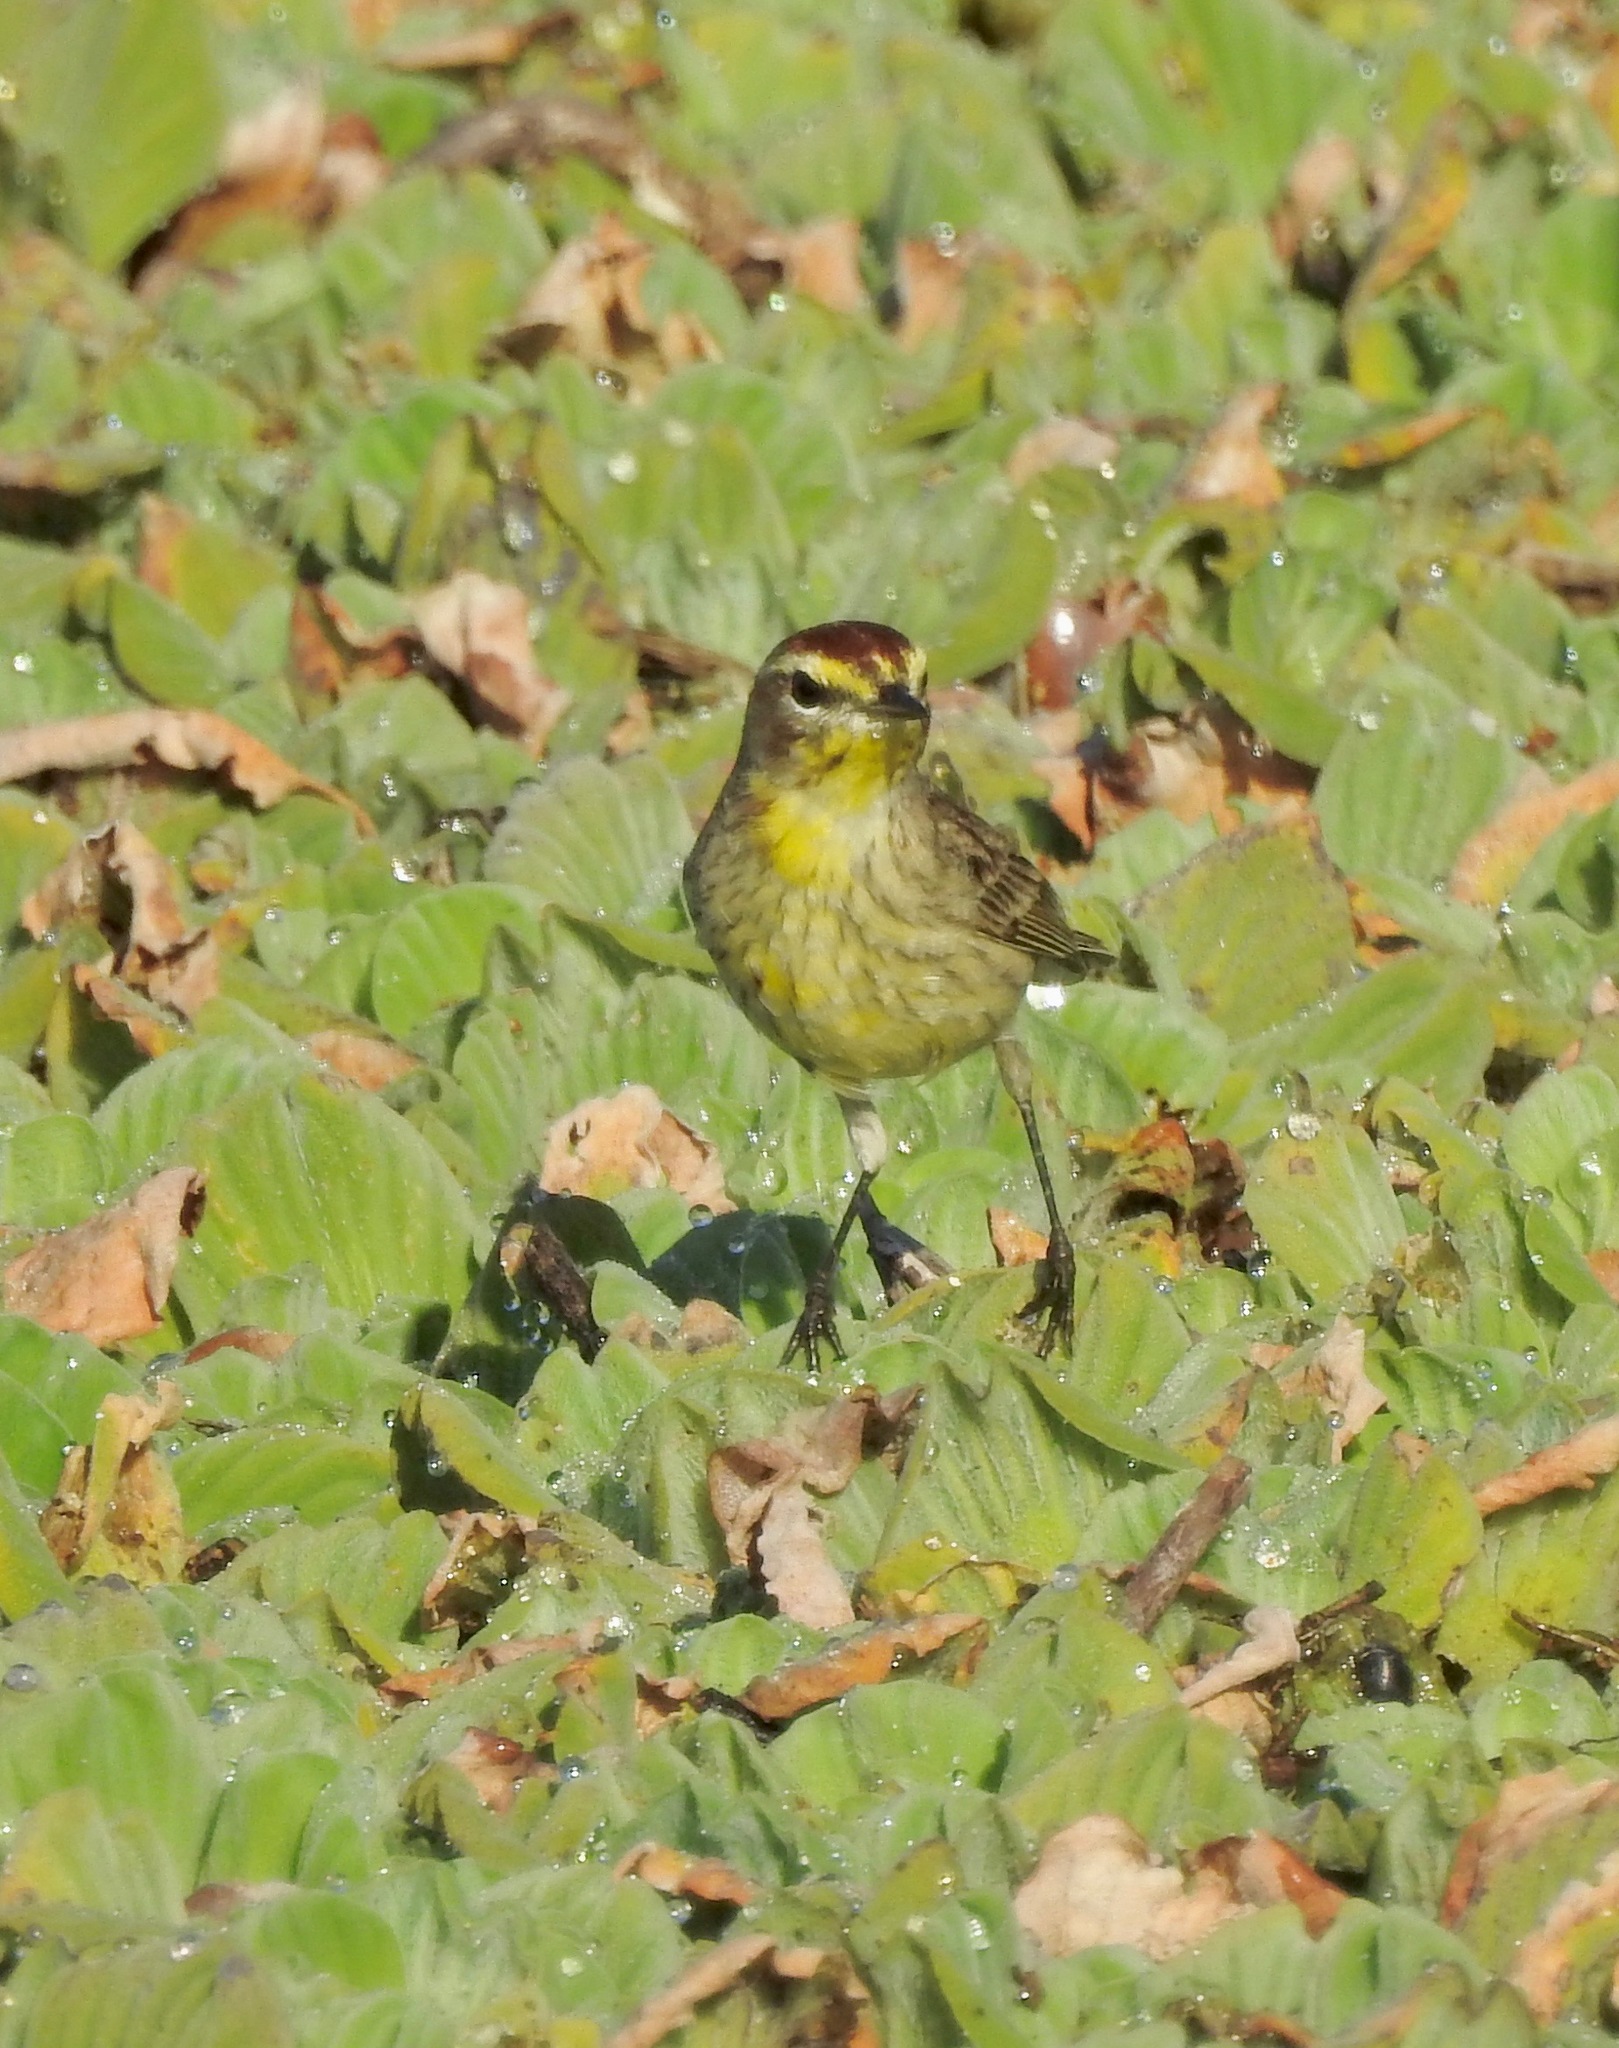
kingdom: Animalia
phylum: Chordata
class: Aves
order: Passeriformes
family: Parulidae
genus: Setophaga
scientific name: Setophaga palmarum
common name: Palm warbler
